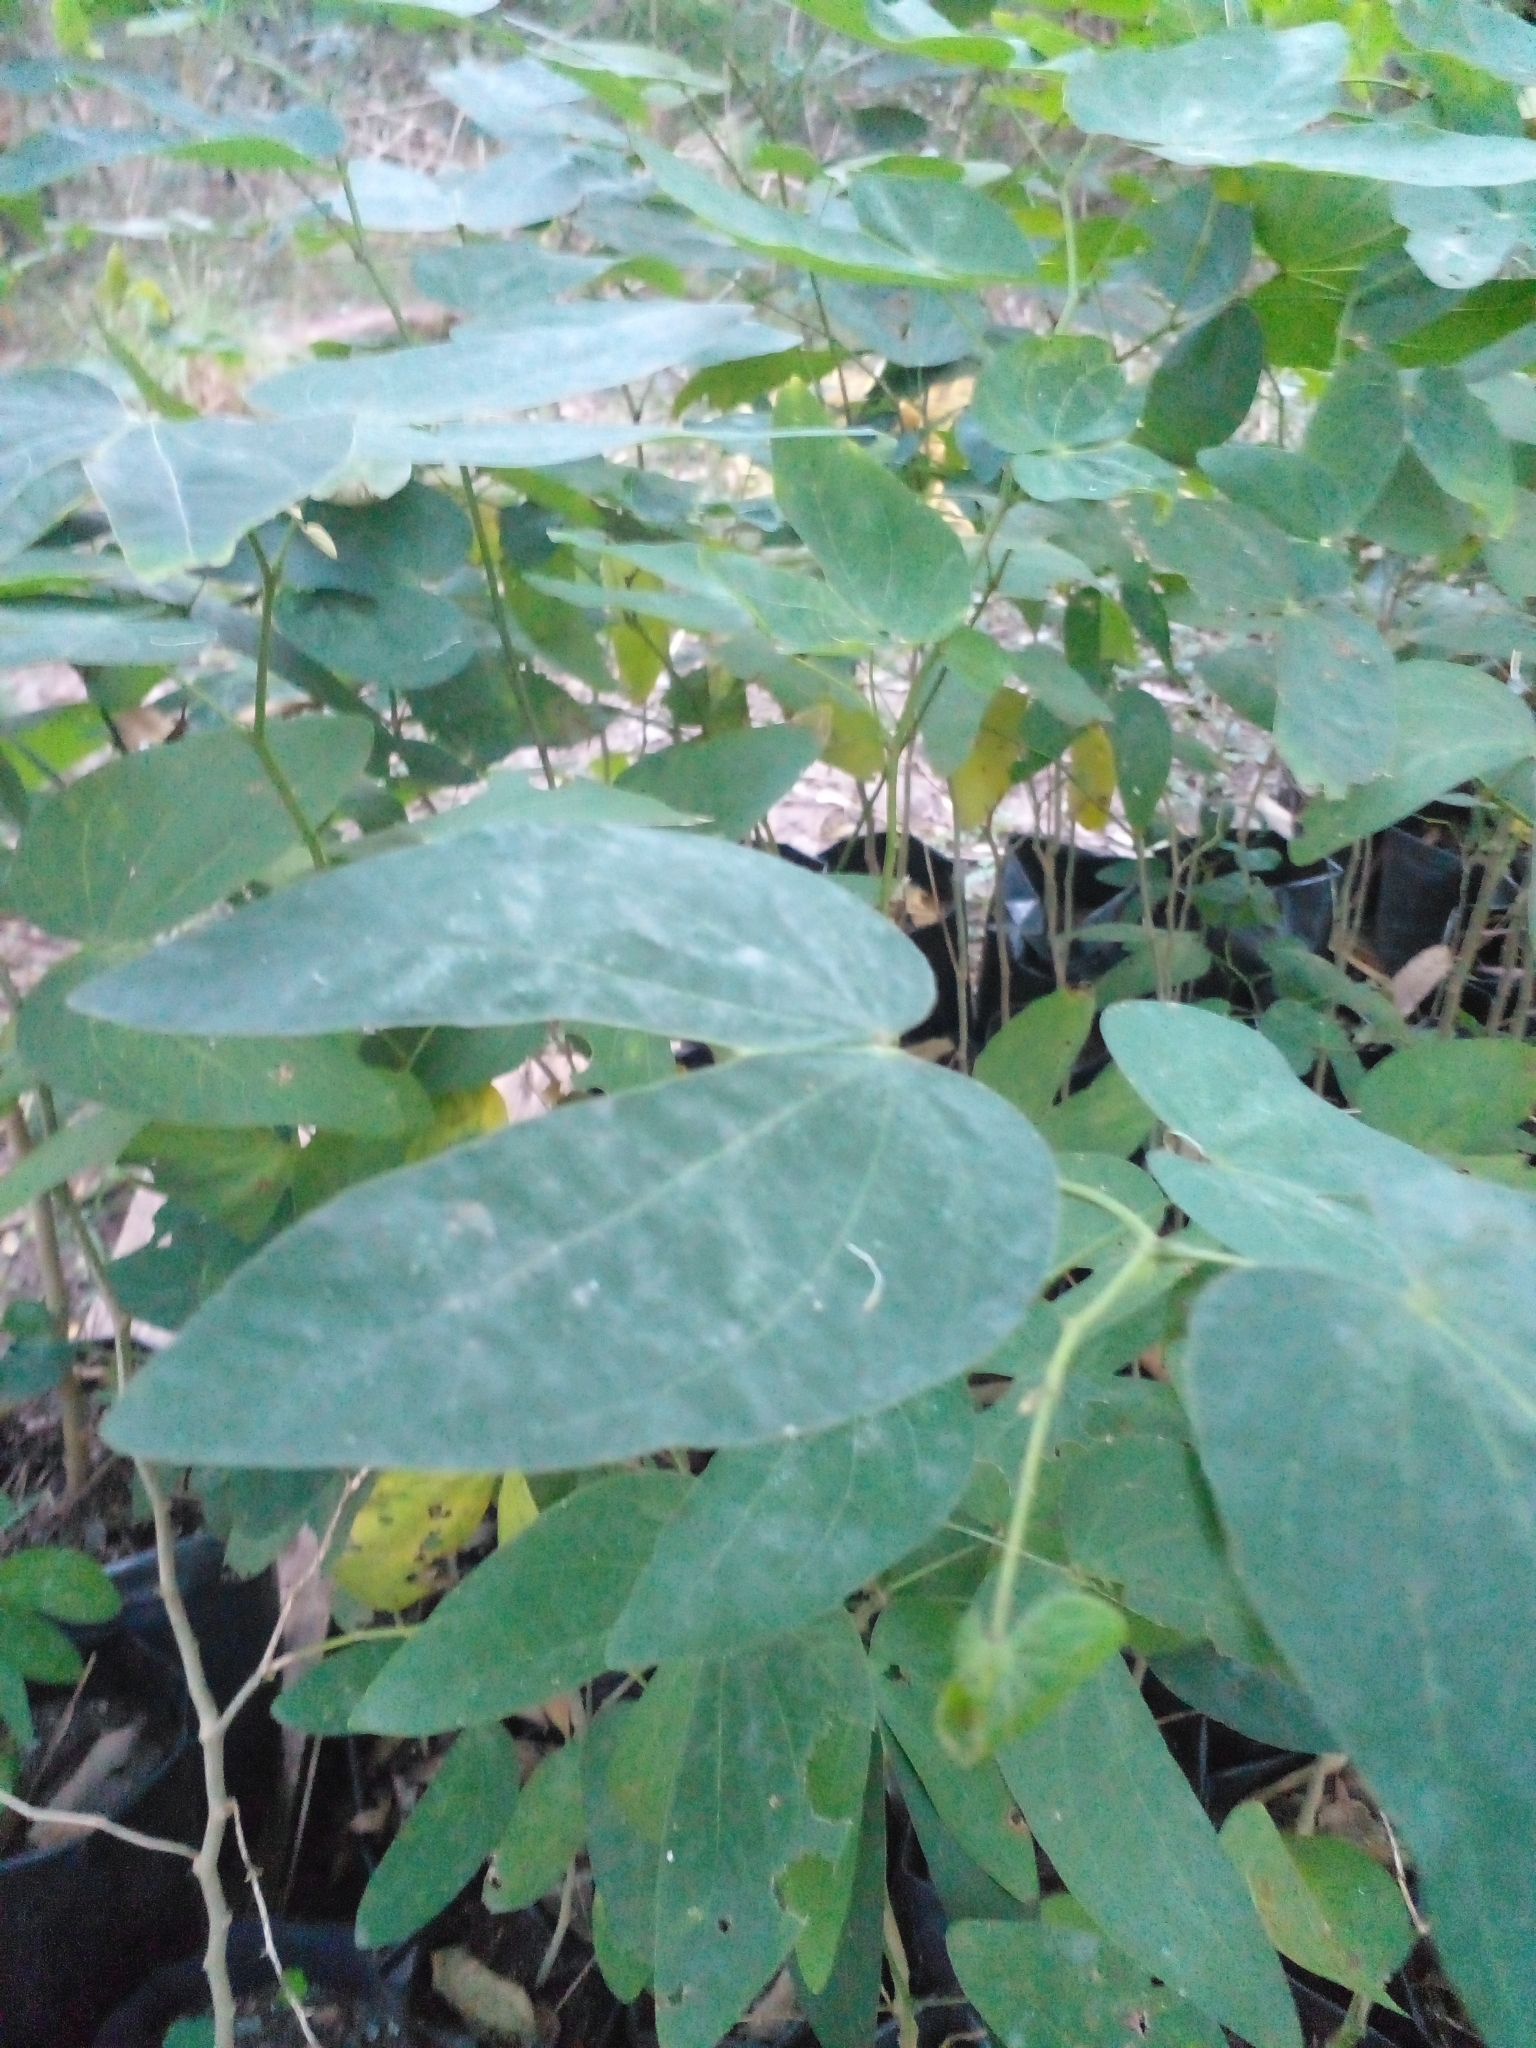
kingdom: Plantae
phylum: Tracheophyta
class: Magnoliopsida
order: Fabales
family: Fabaceae
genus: Bauhinia
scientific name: Bauhinia forficata
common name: Orchid tree
